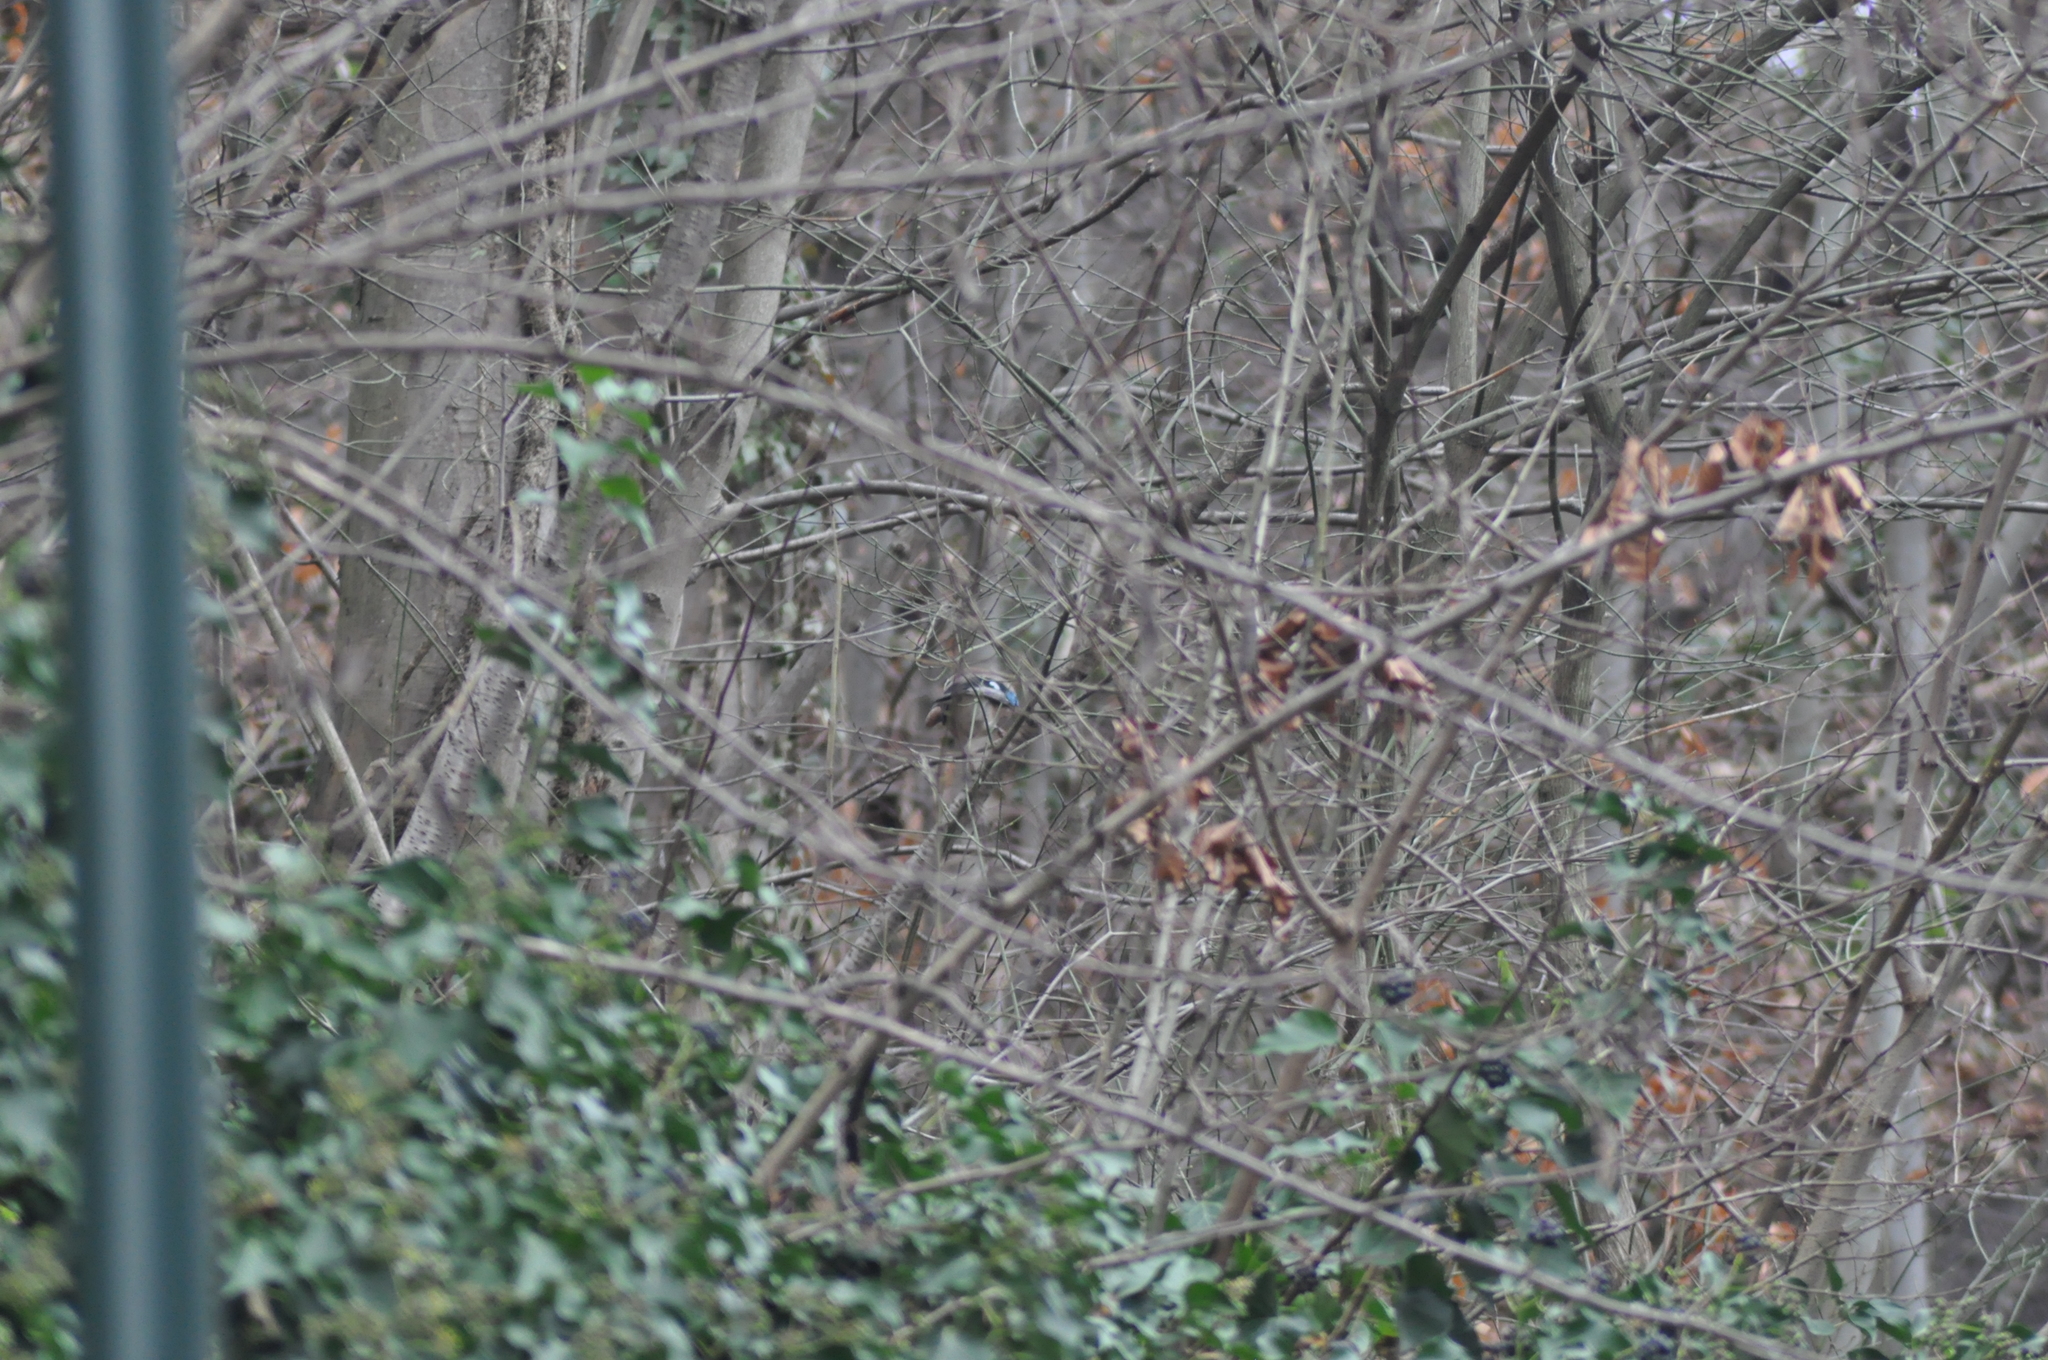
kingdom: Animalia
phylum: Chordata
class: Aves
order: Passeriformes
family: Corvidae
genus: Garrulus
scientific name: Garrulus glandarius
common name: Eurasian jay
